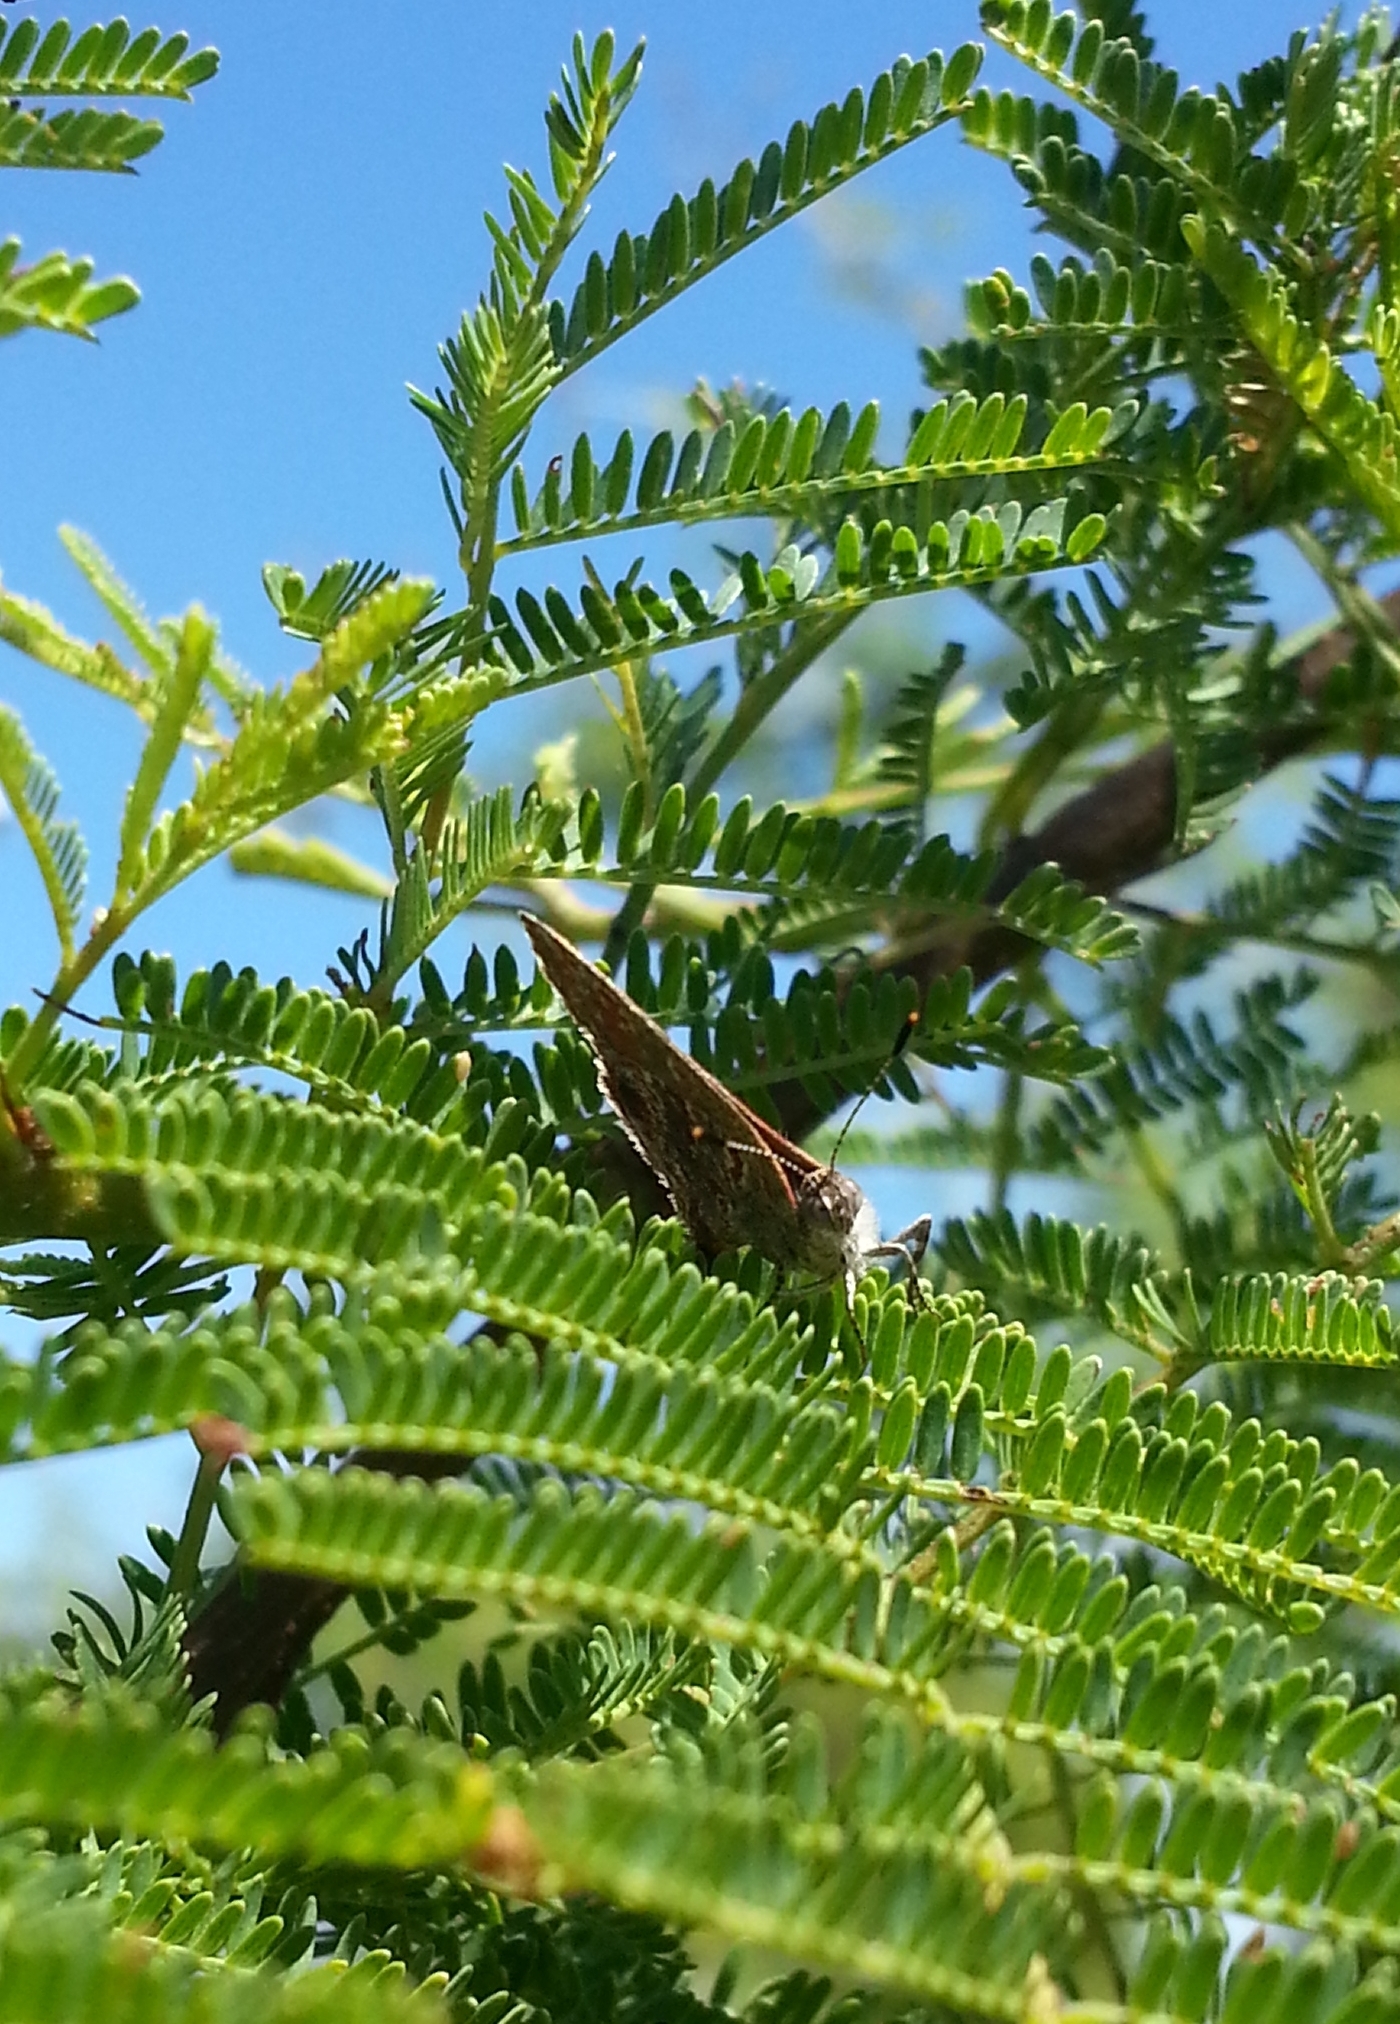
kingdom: Animalia
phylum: Arthropoda
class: Insecta
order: Lepidoptera
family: Lycaenidae
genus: Ministrymon
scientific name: Ministrymon
